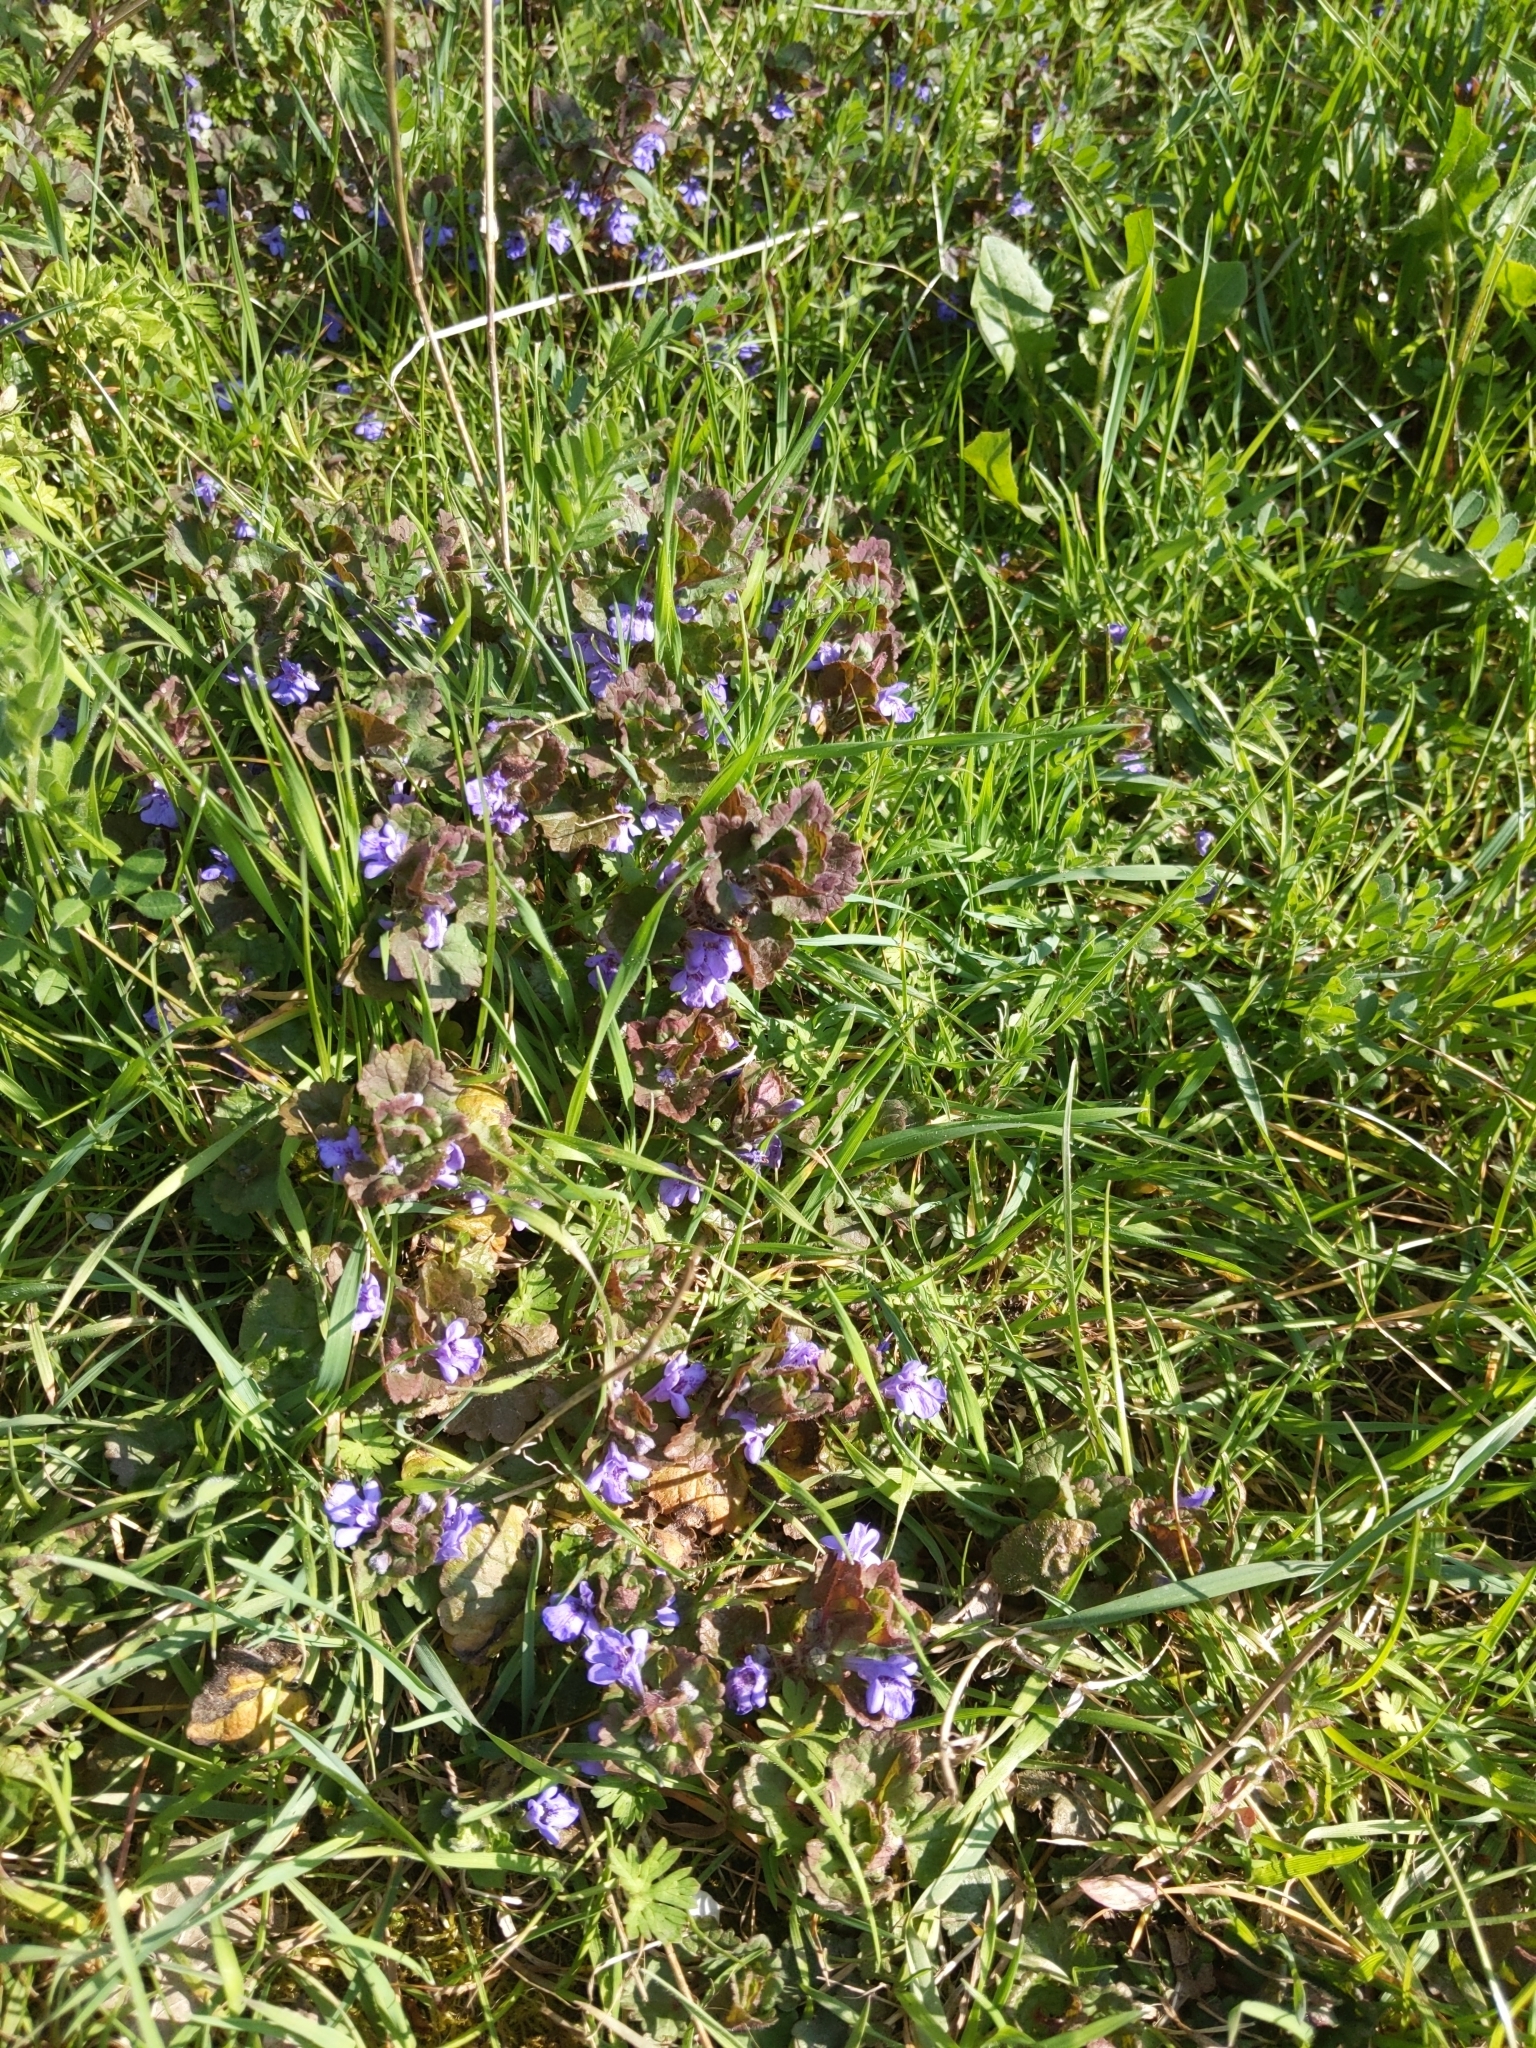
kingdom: Plantae
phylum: Tracheophyta
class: Magnoliopsida
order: Lamiales
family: Lamiaceae
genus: Glechoma
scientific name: Glechoma hederacea
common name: Ground ivy
